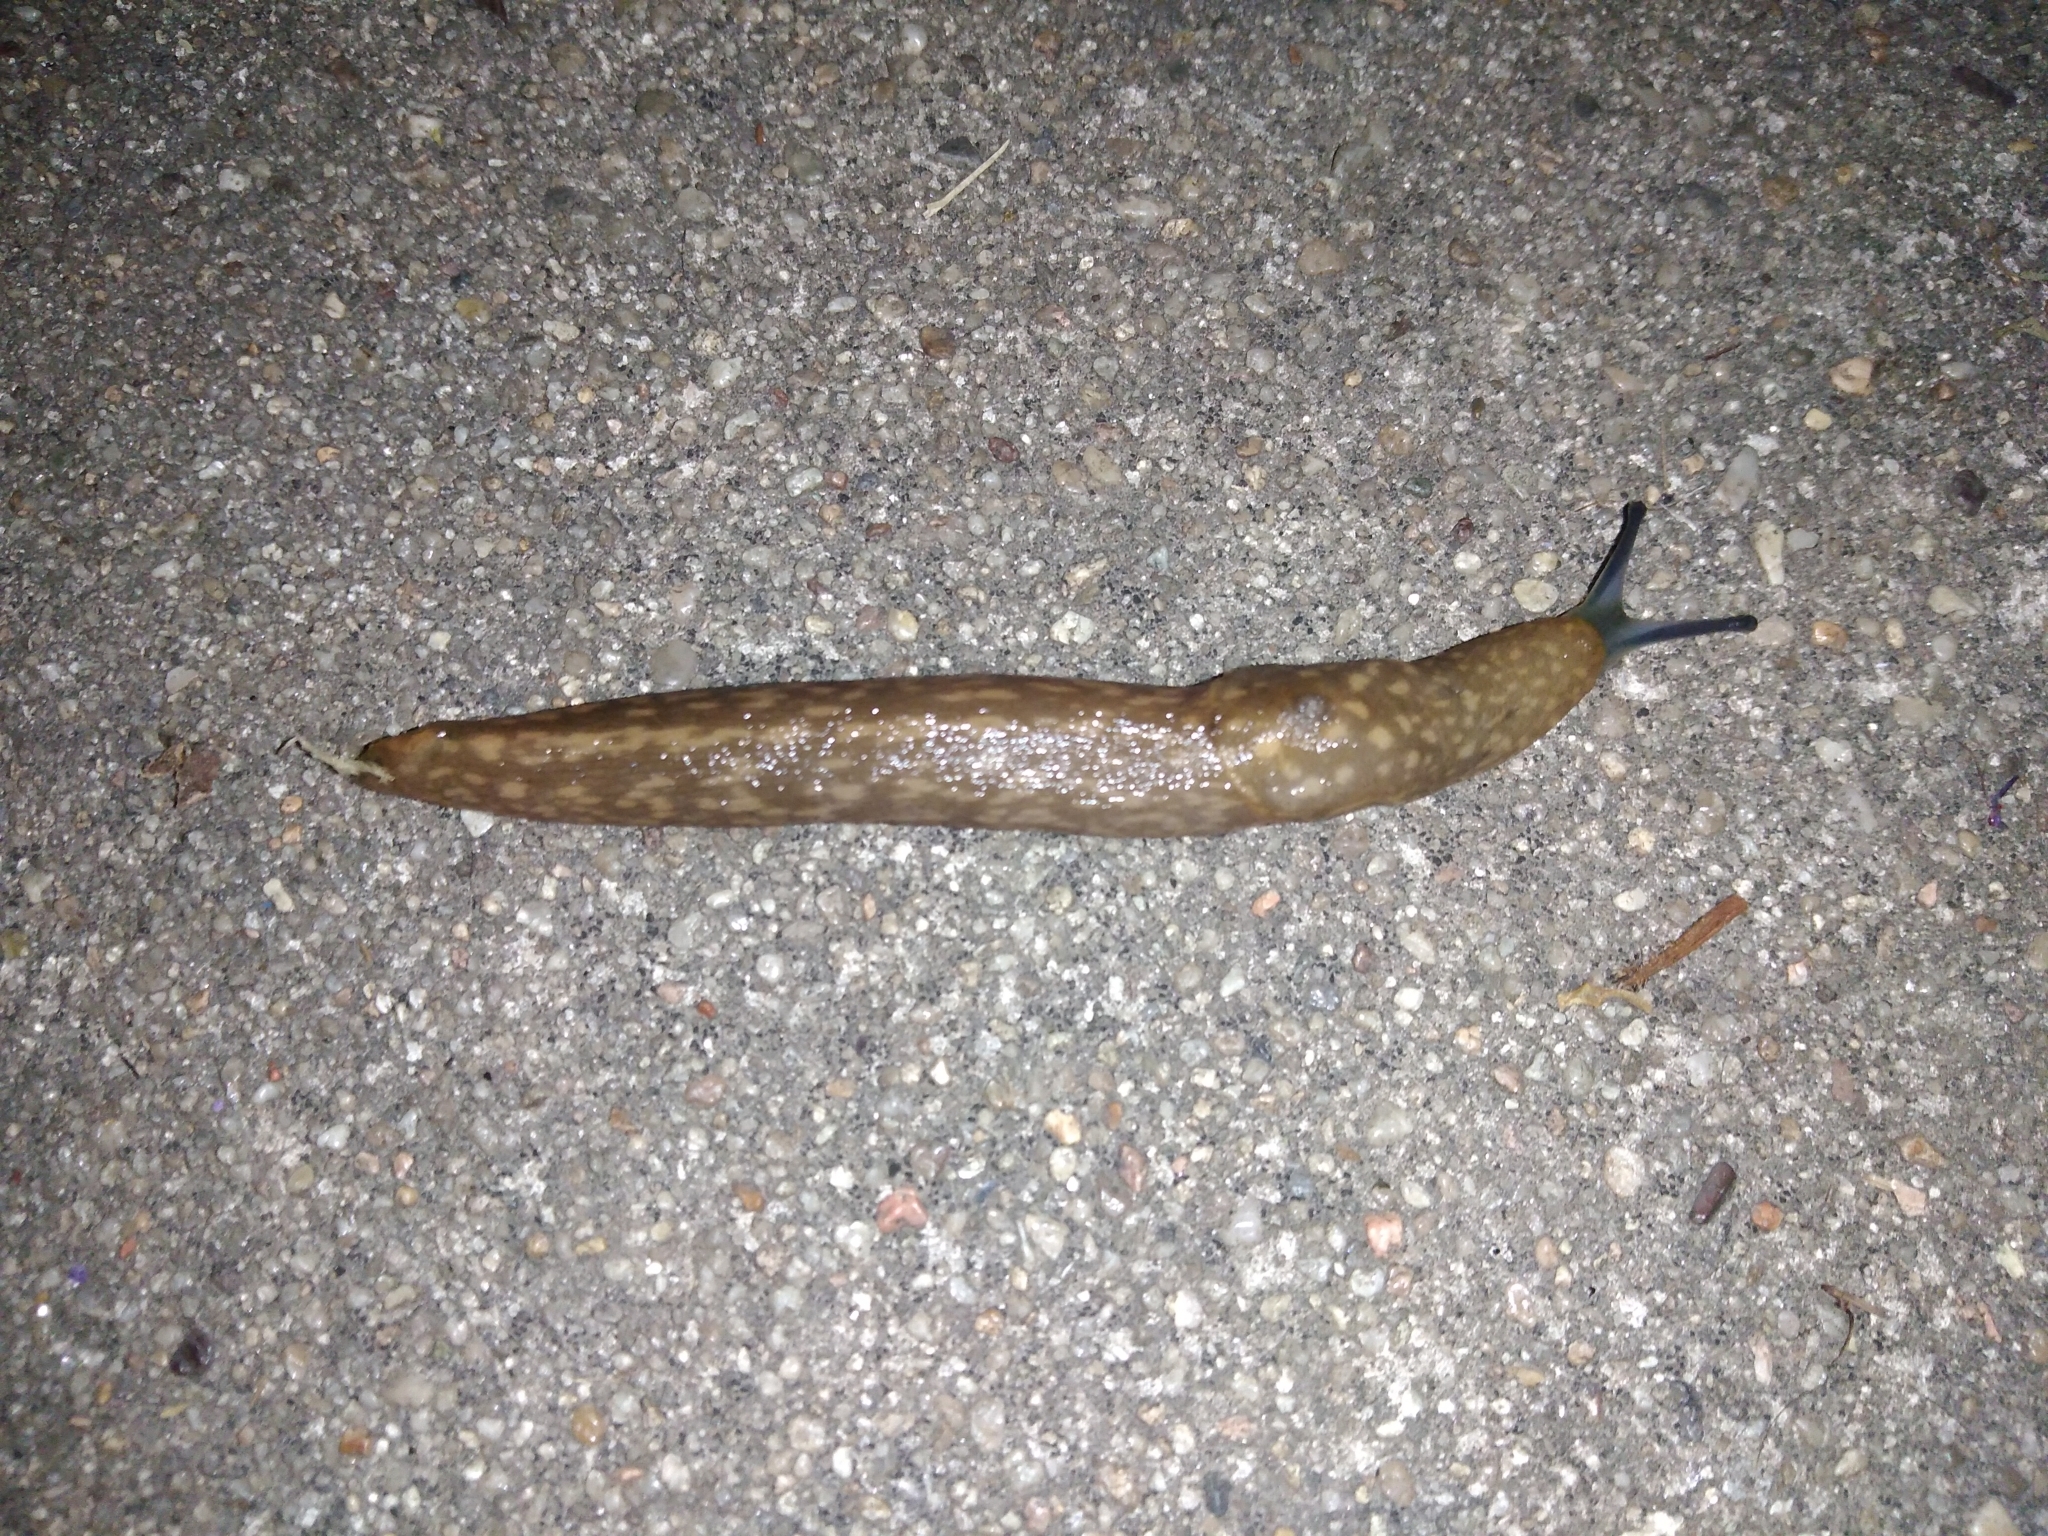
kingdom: Animalia
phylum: Mollusca
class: Gastropoda
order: Stylommatophora
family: Limacidae
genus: Limacus
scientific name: Limacus flavus
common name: Yellow gardenslug
